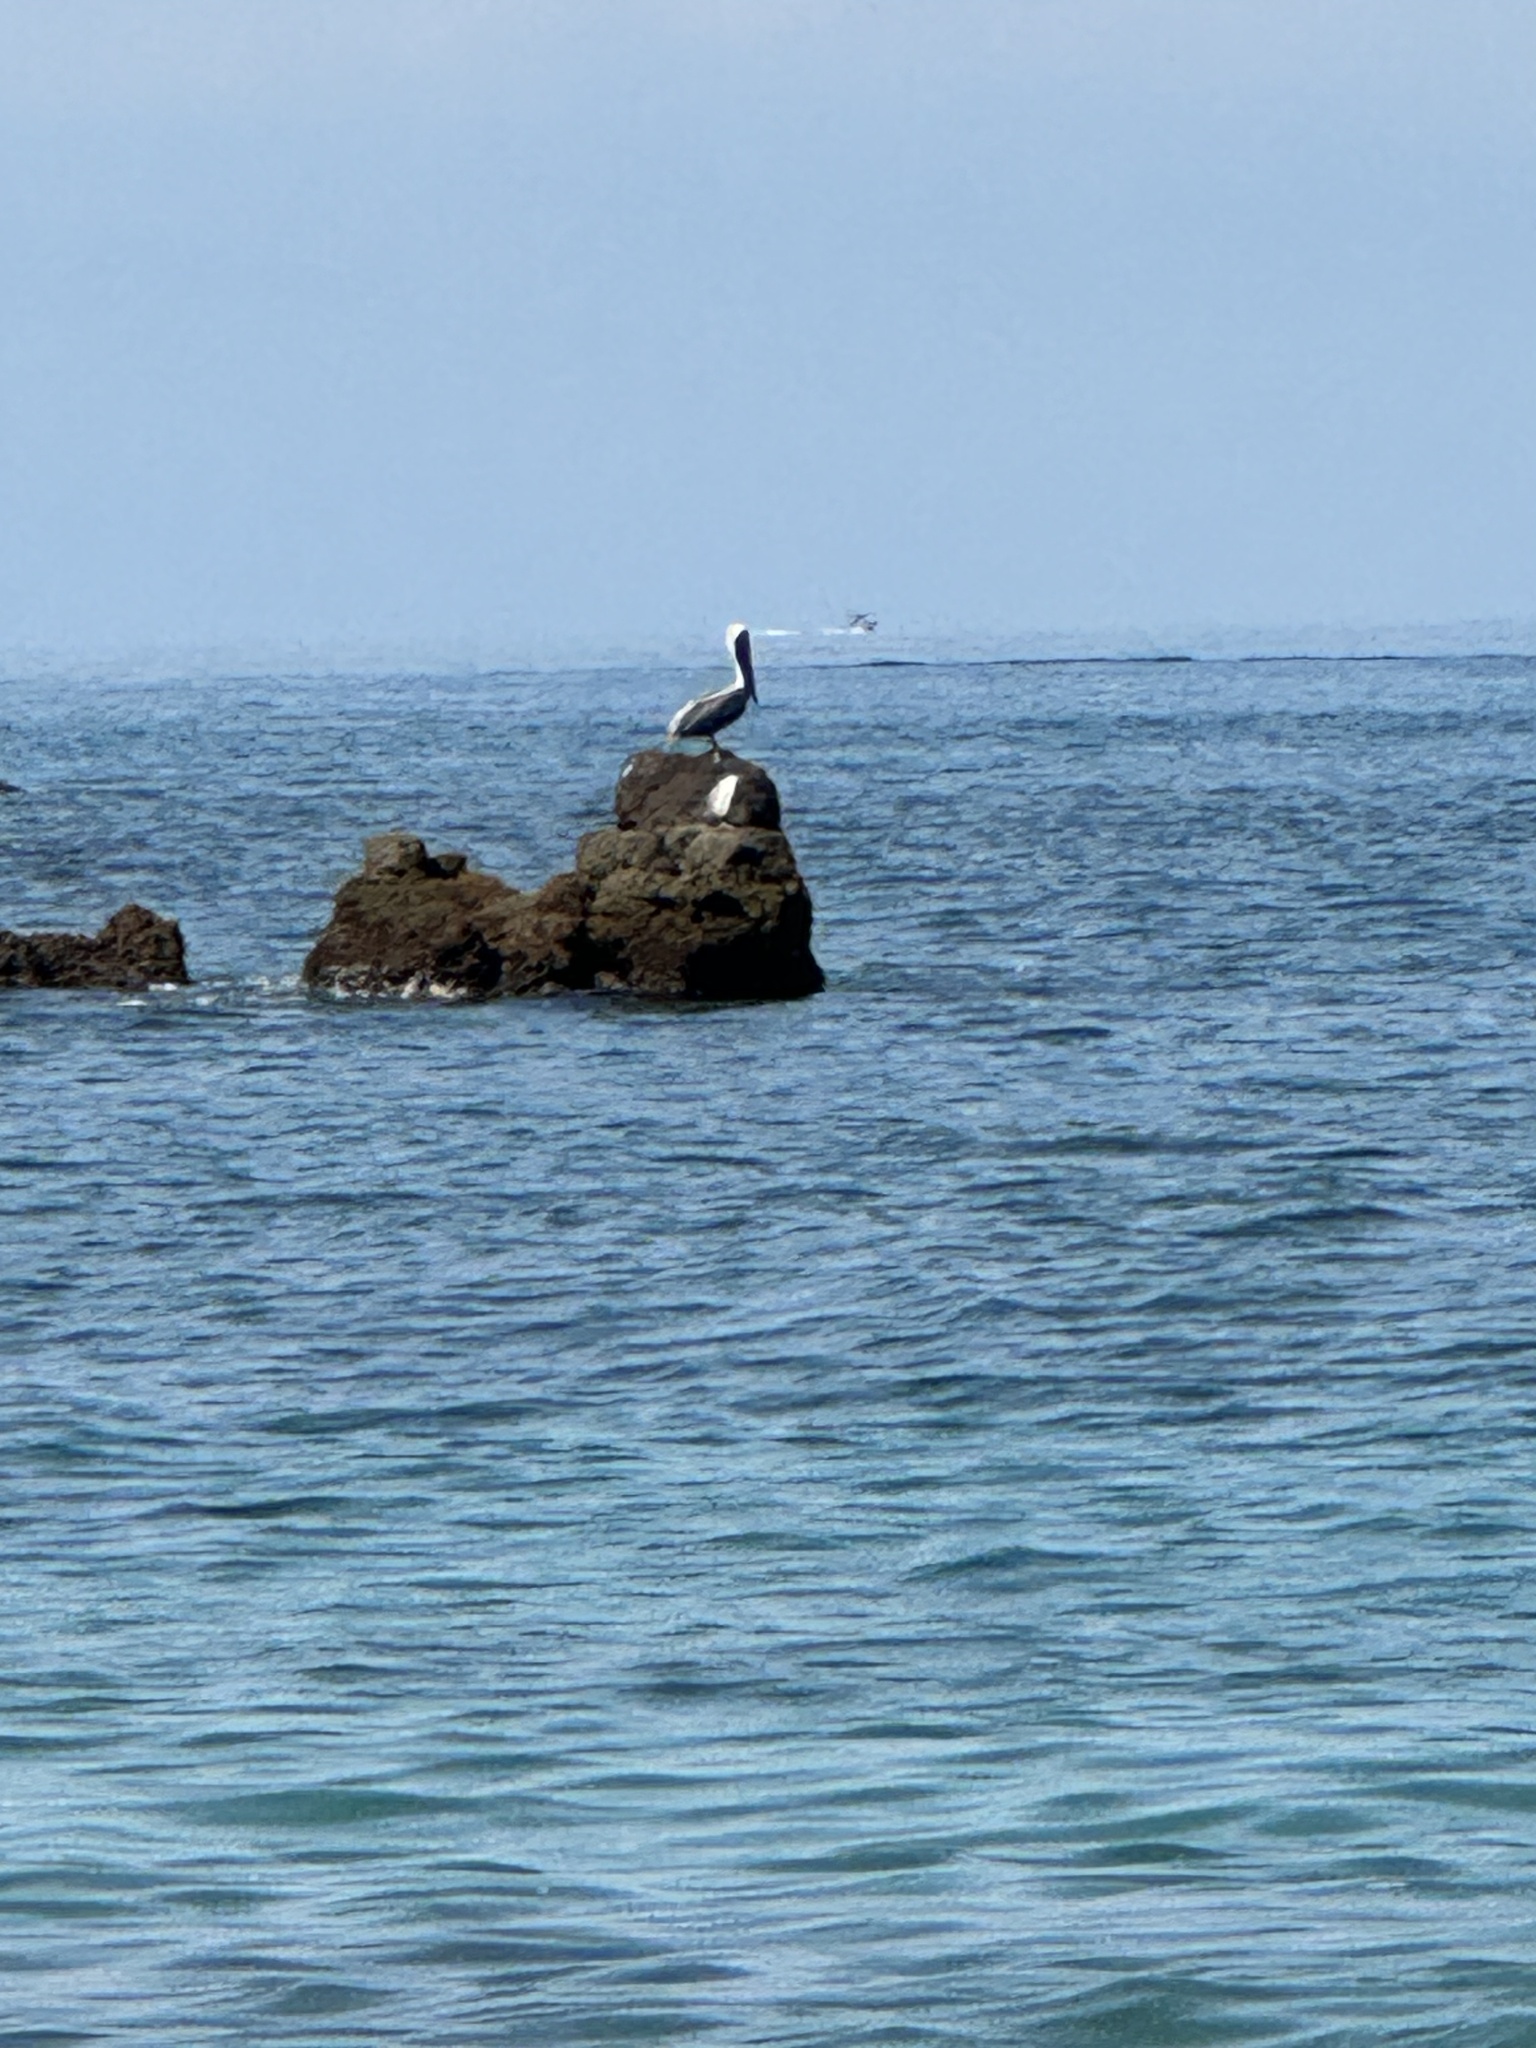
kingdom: Animalia
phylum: Chordata
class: Aves
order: Pelecaniformes
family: Pelecanidae
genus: Pelecanus
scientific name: Pelecanus occidentalis
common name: Brown pelican
